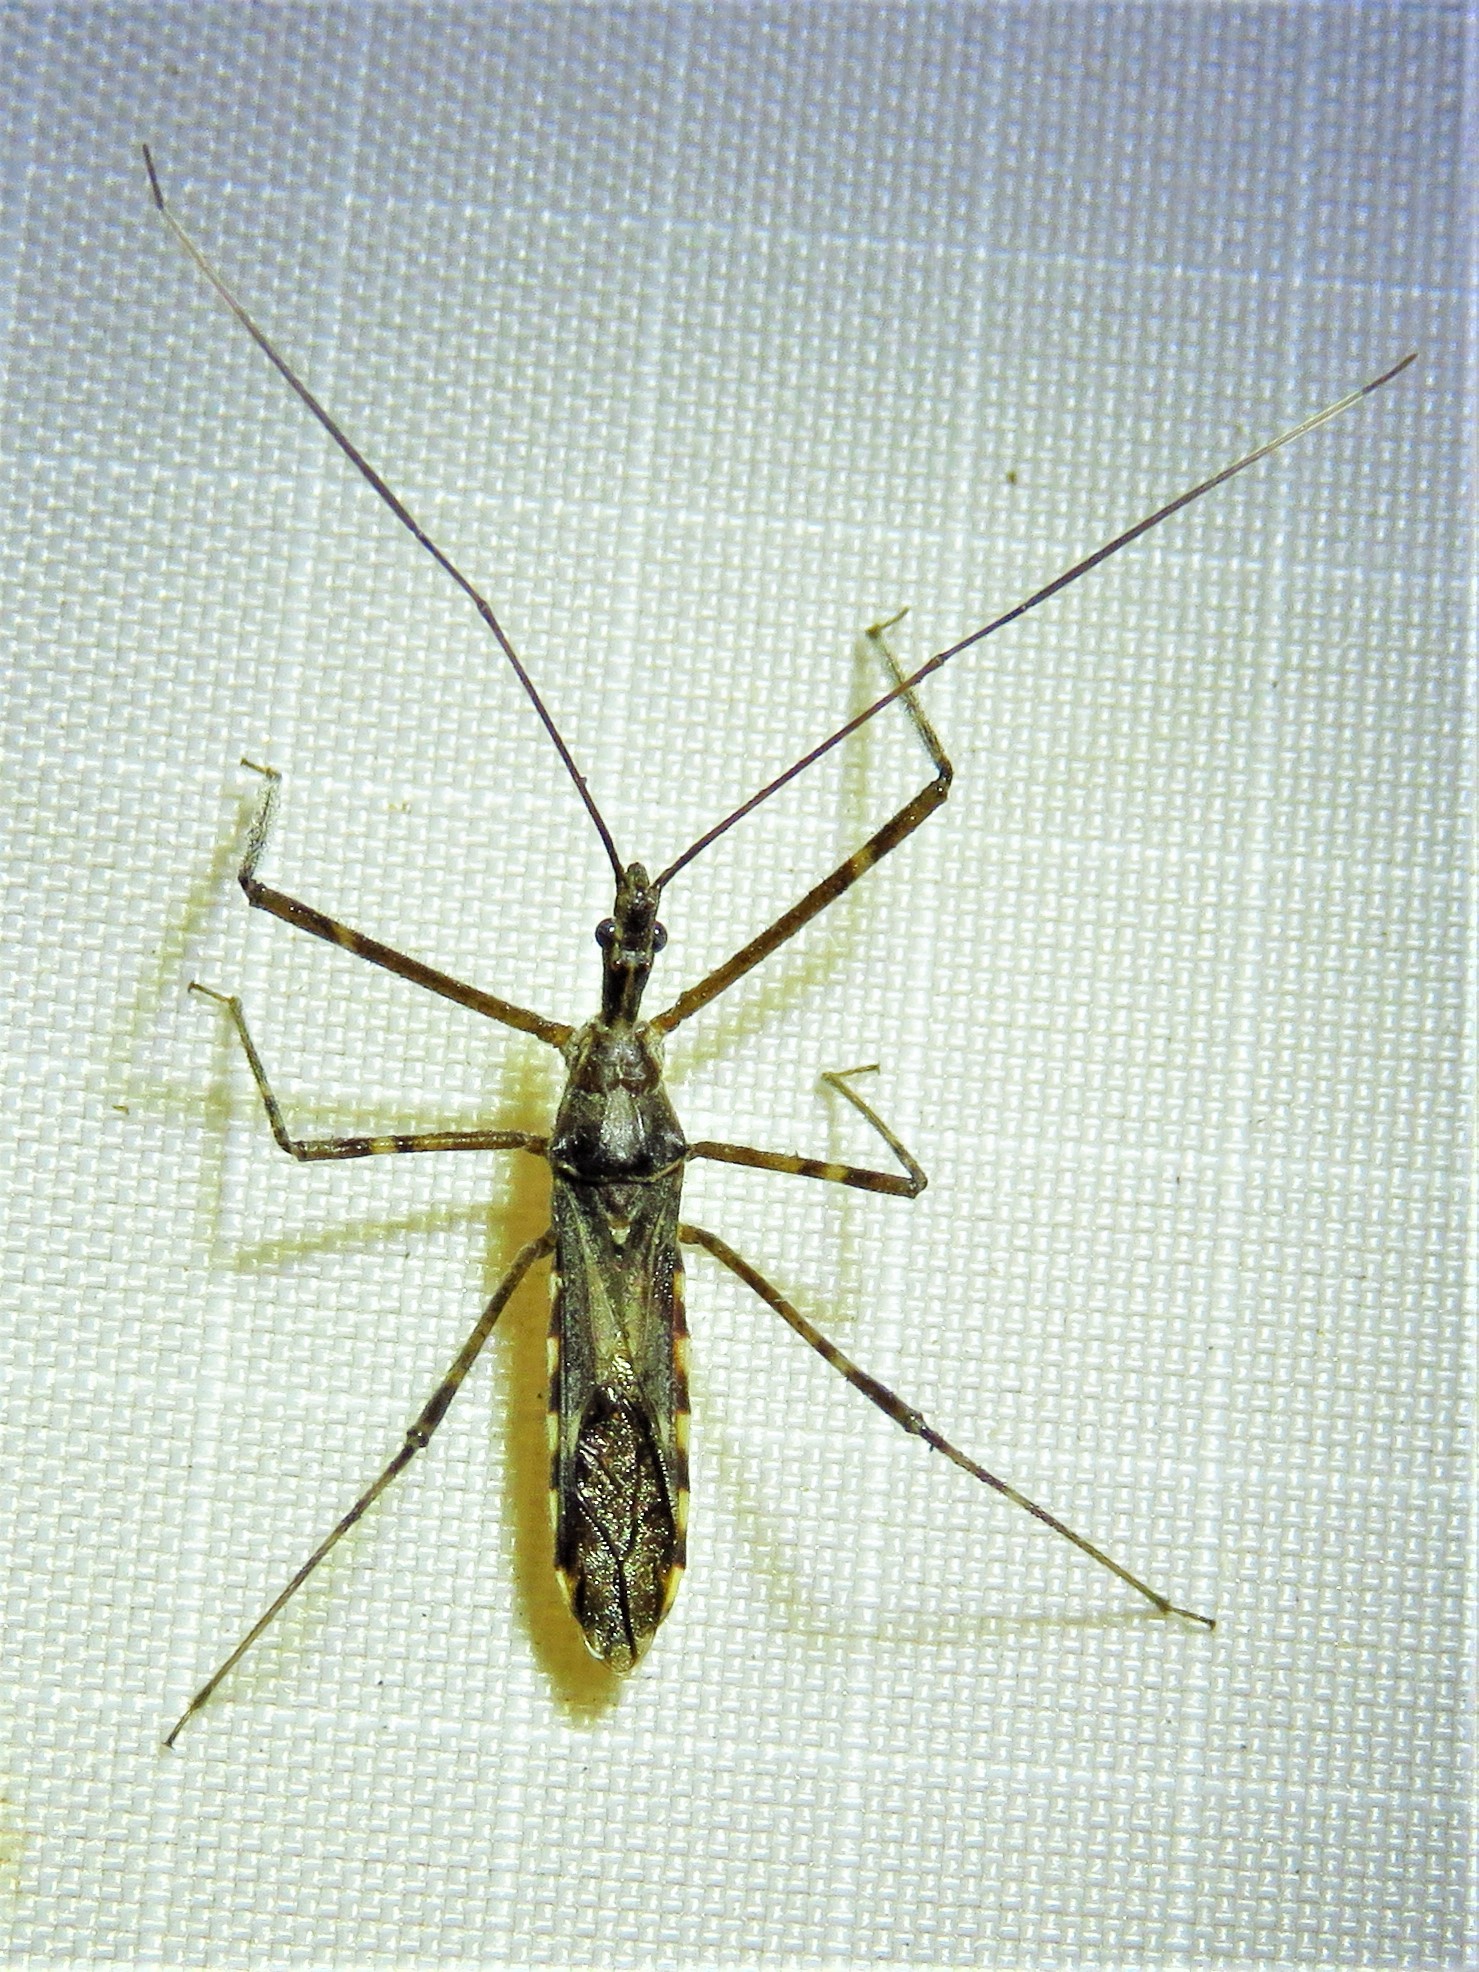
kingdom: Animalia
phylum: Arthropoda
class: Insecta
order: Hemiptera
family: Reduviidae
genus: Zelus
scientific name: Zelus tetracanthus
